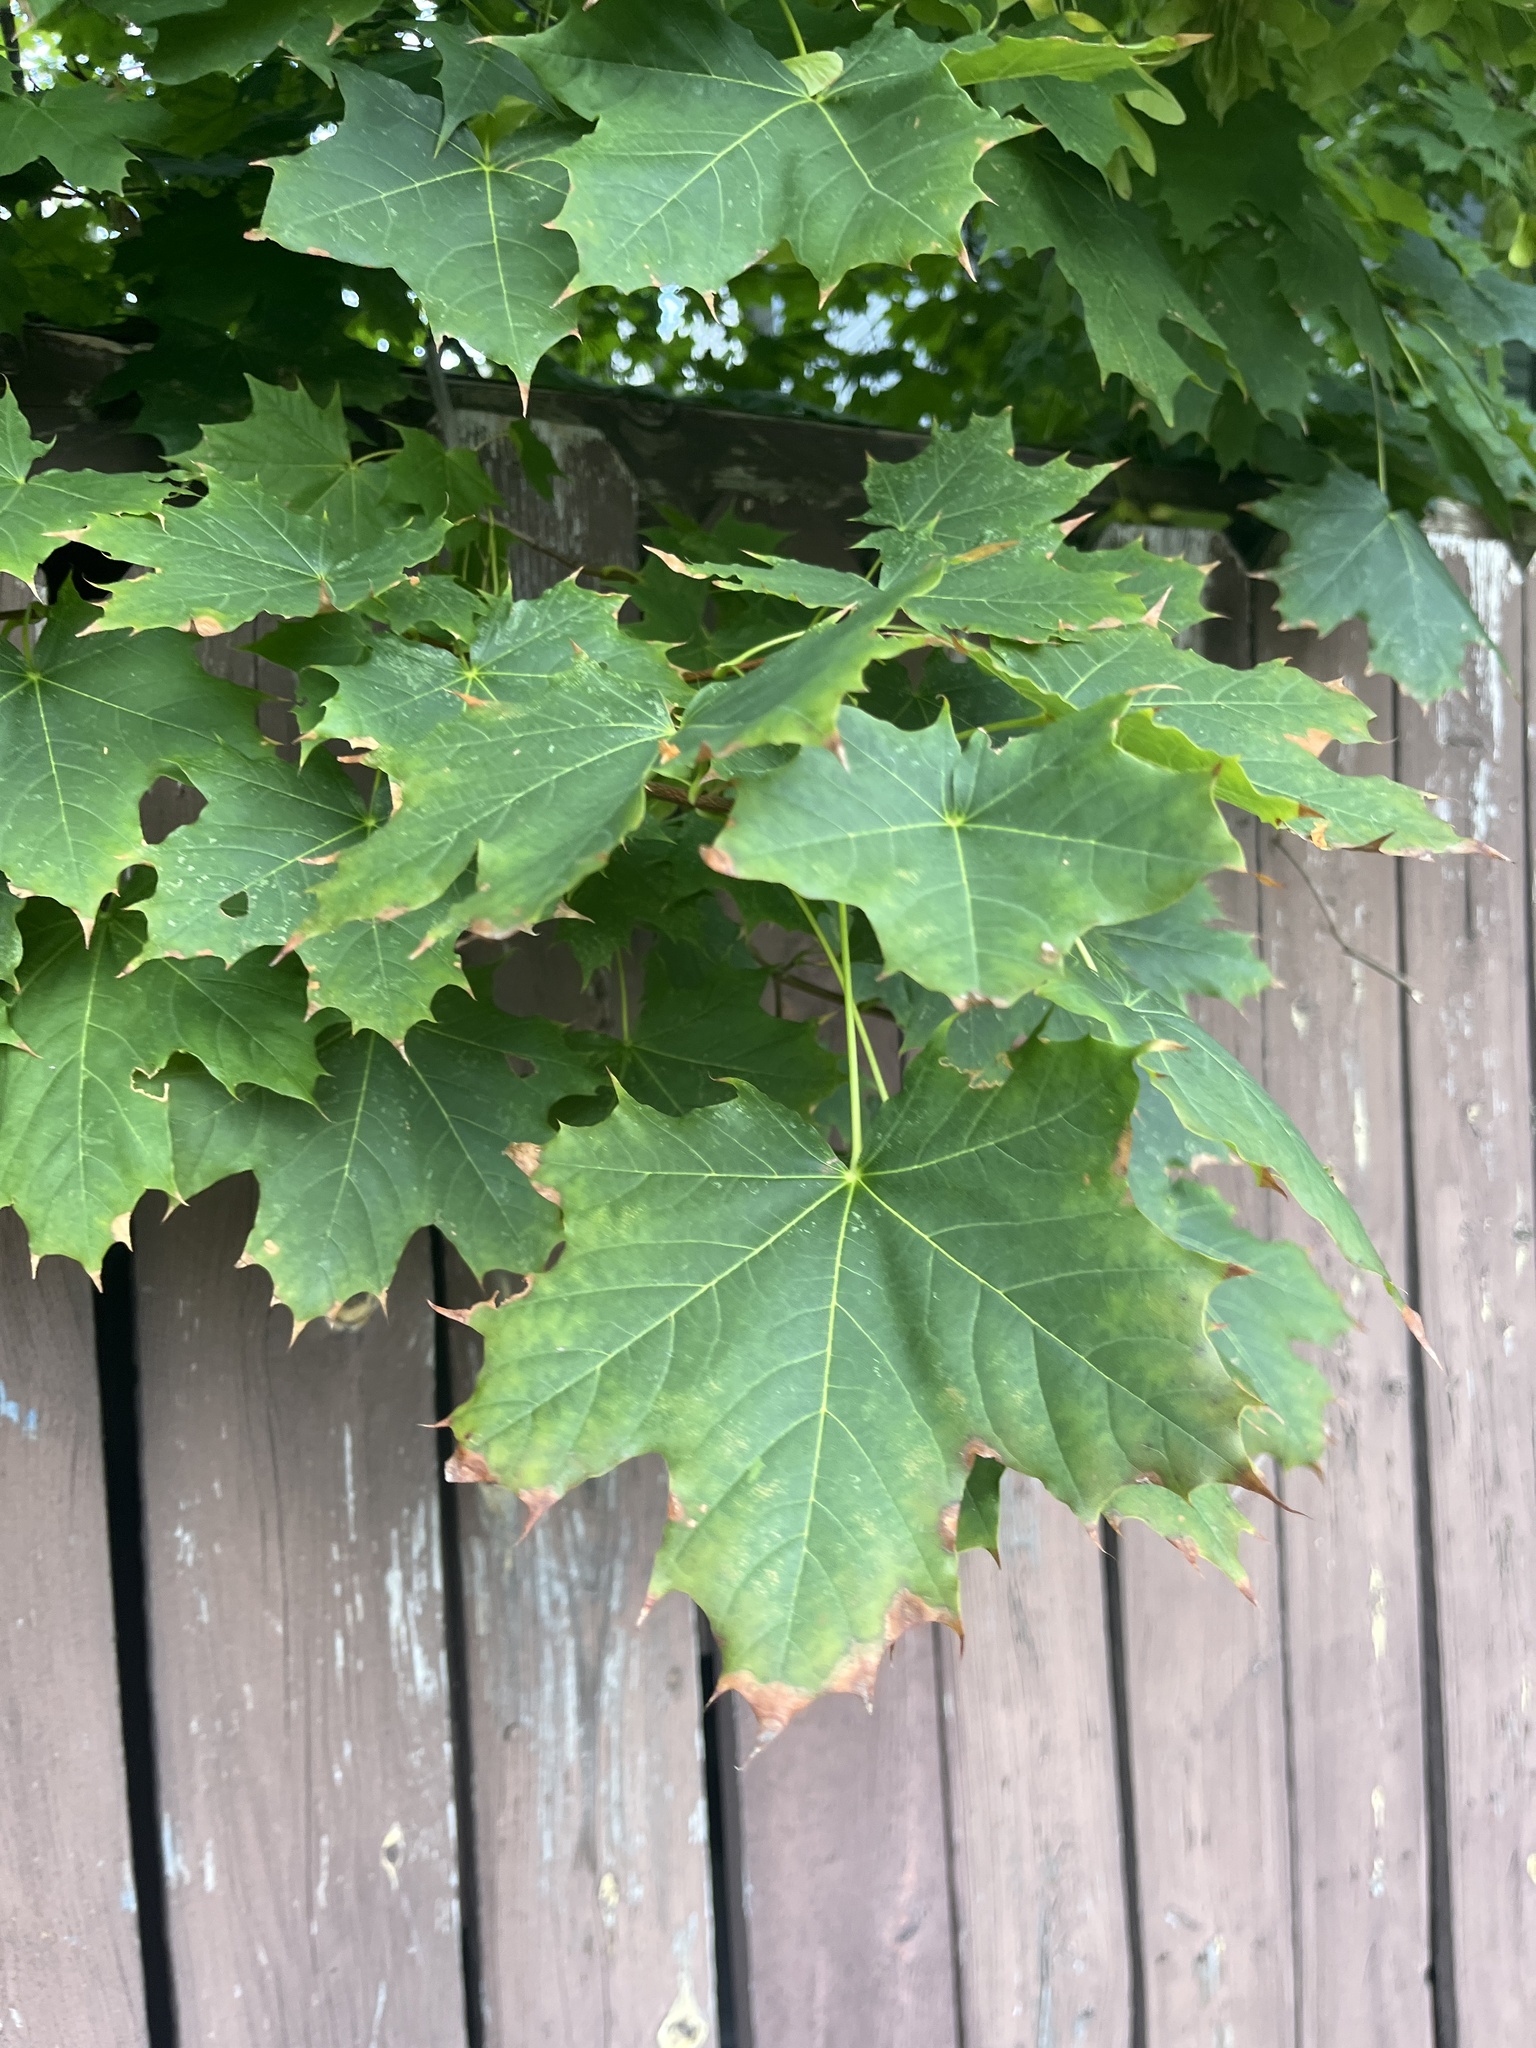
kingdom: Plantae
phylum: Tracheophyta
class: Magnoliopsida
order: Sapindales
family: Sapindaceae
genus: Acer
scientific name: Acer platanoides
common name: Norway maple
